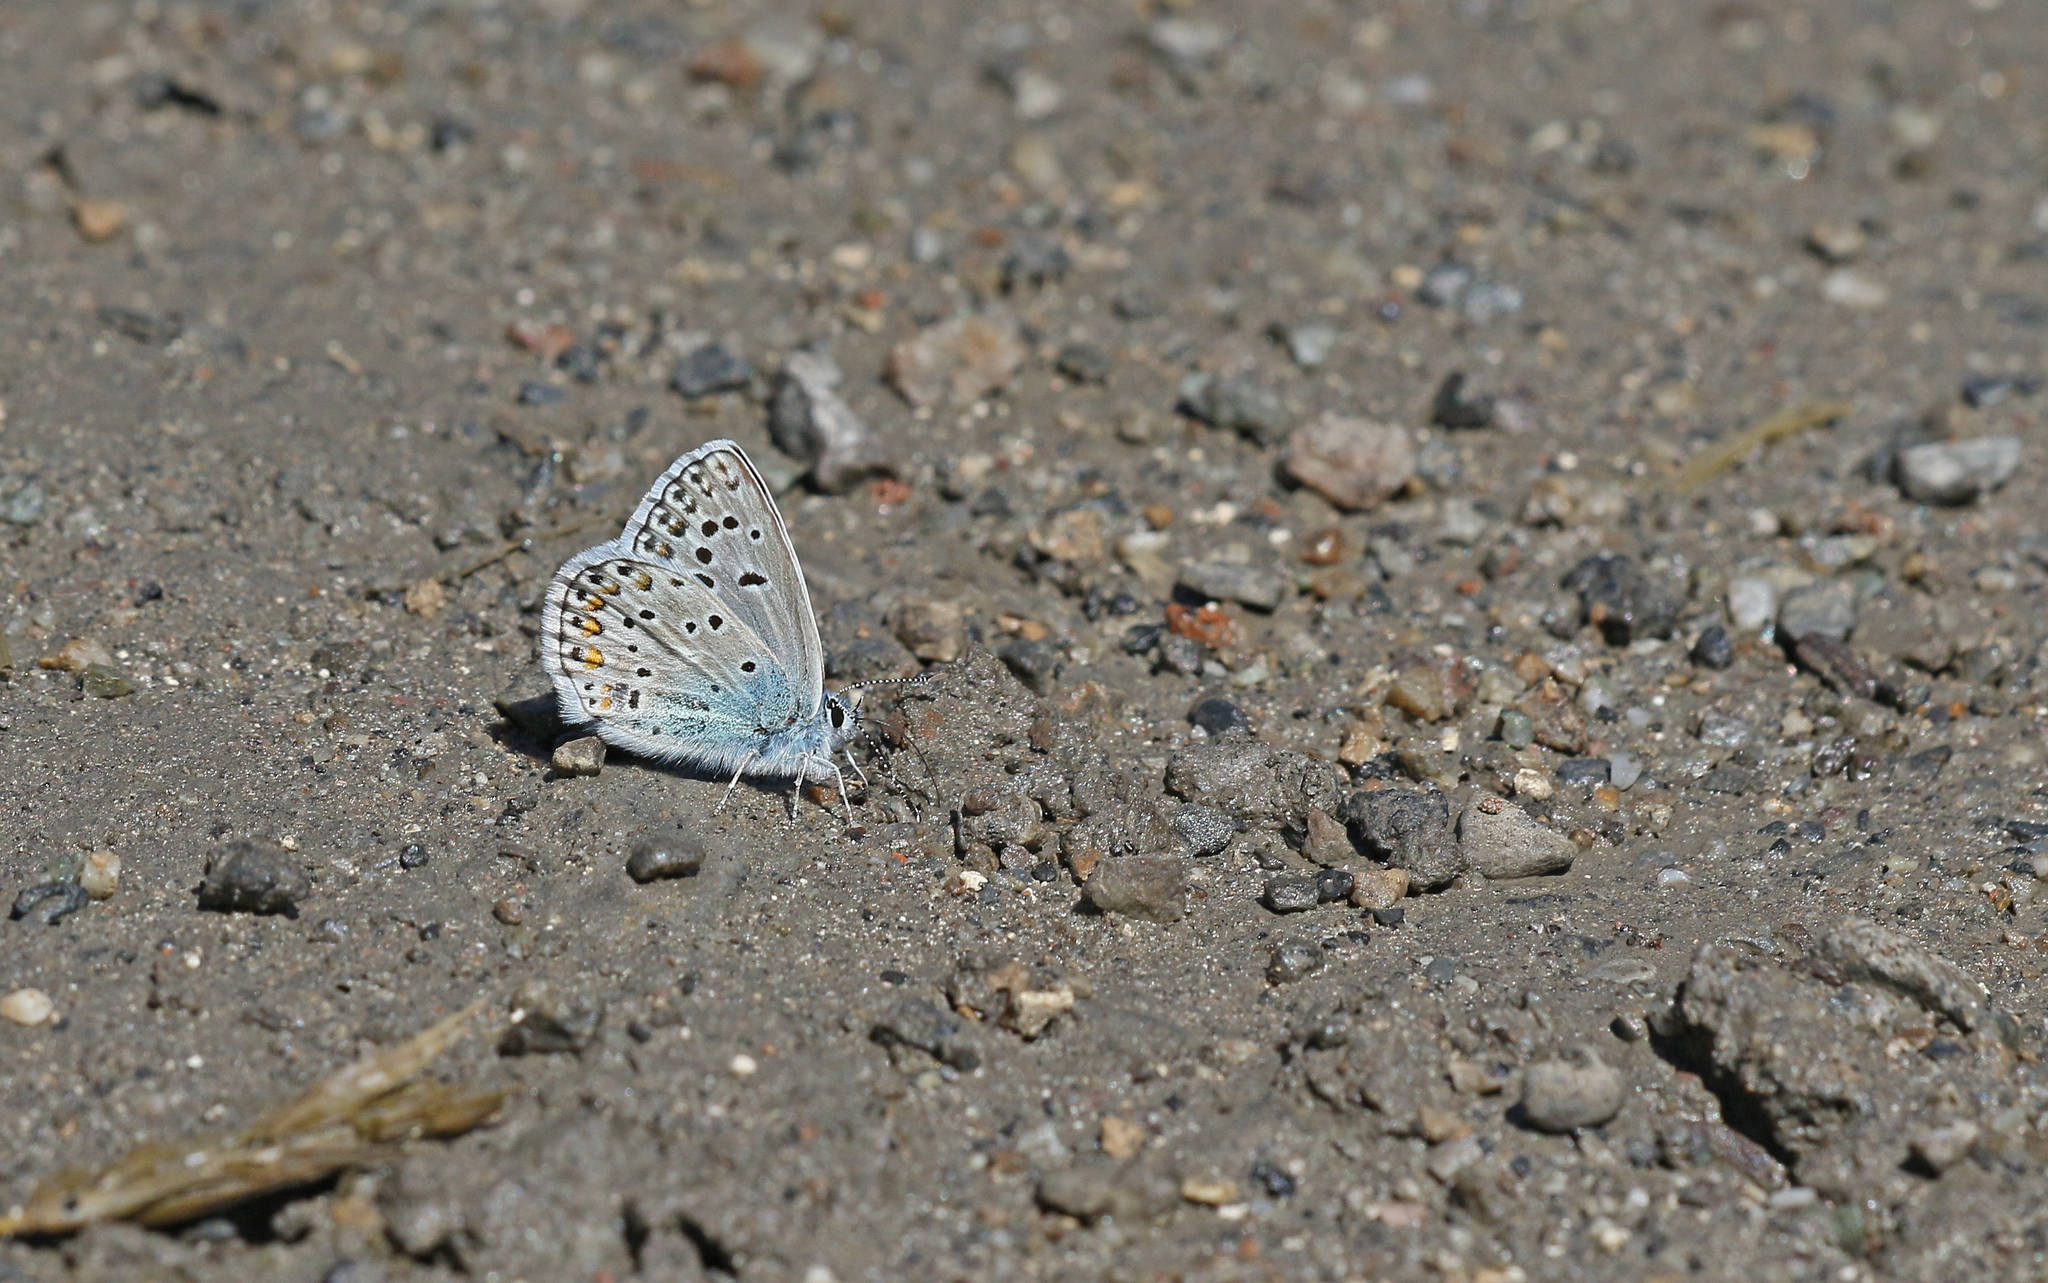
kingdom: Animalia
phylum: Arthropoda
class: Insecta
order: Lepidoptera
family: Lycaenidae
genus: Plebicula
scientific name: Plebicula escheri
